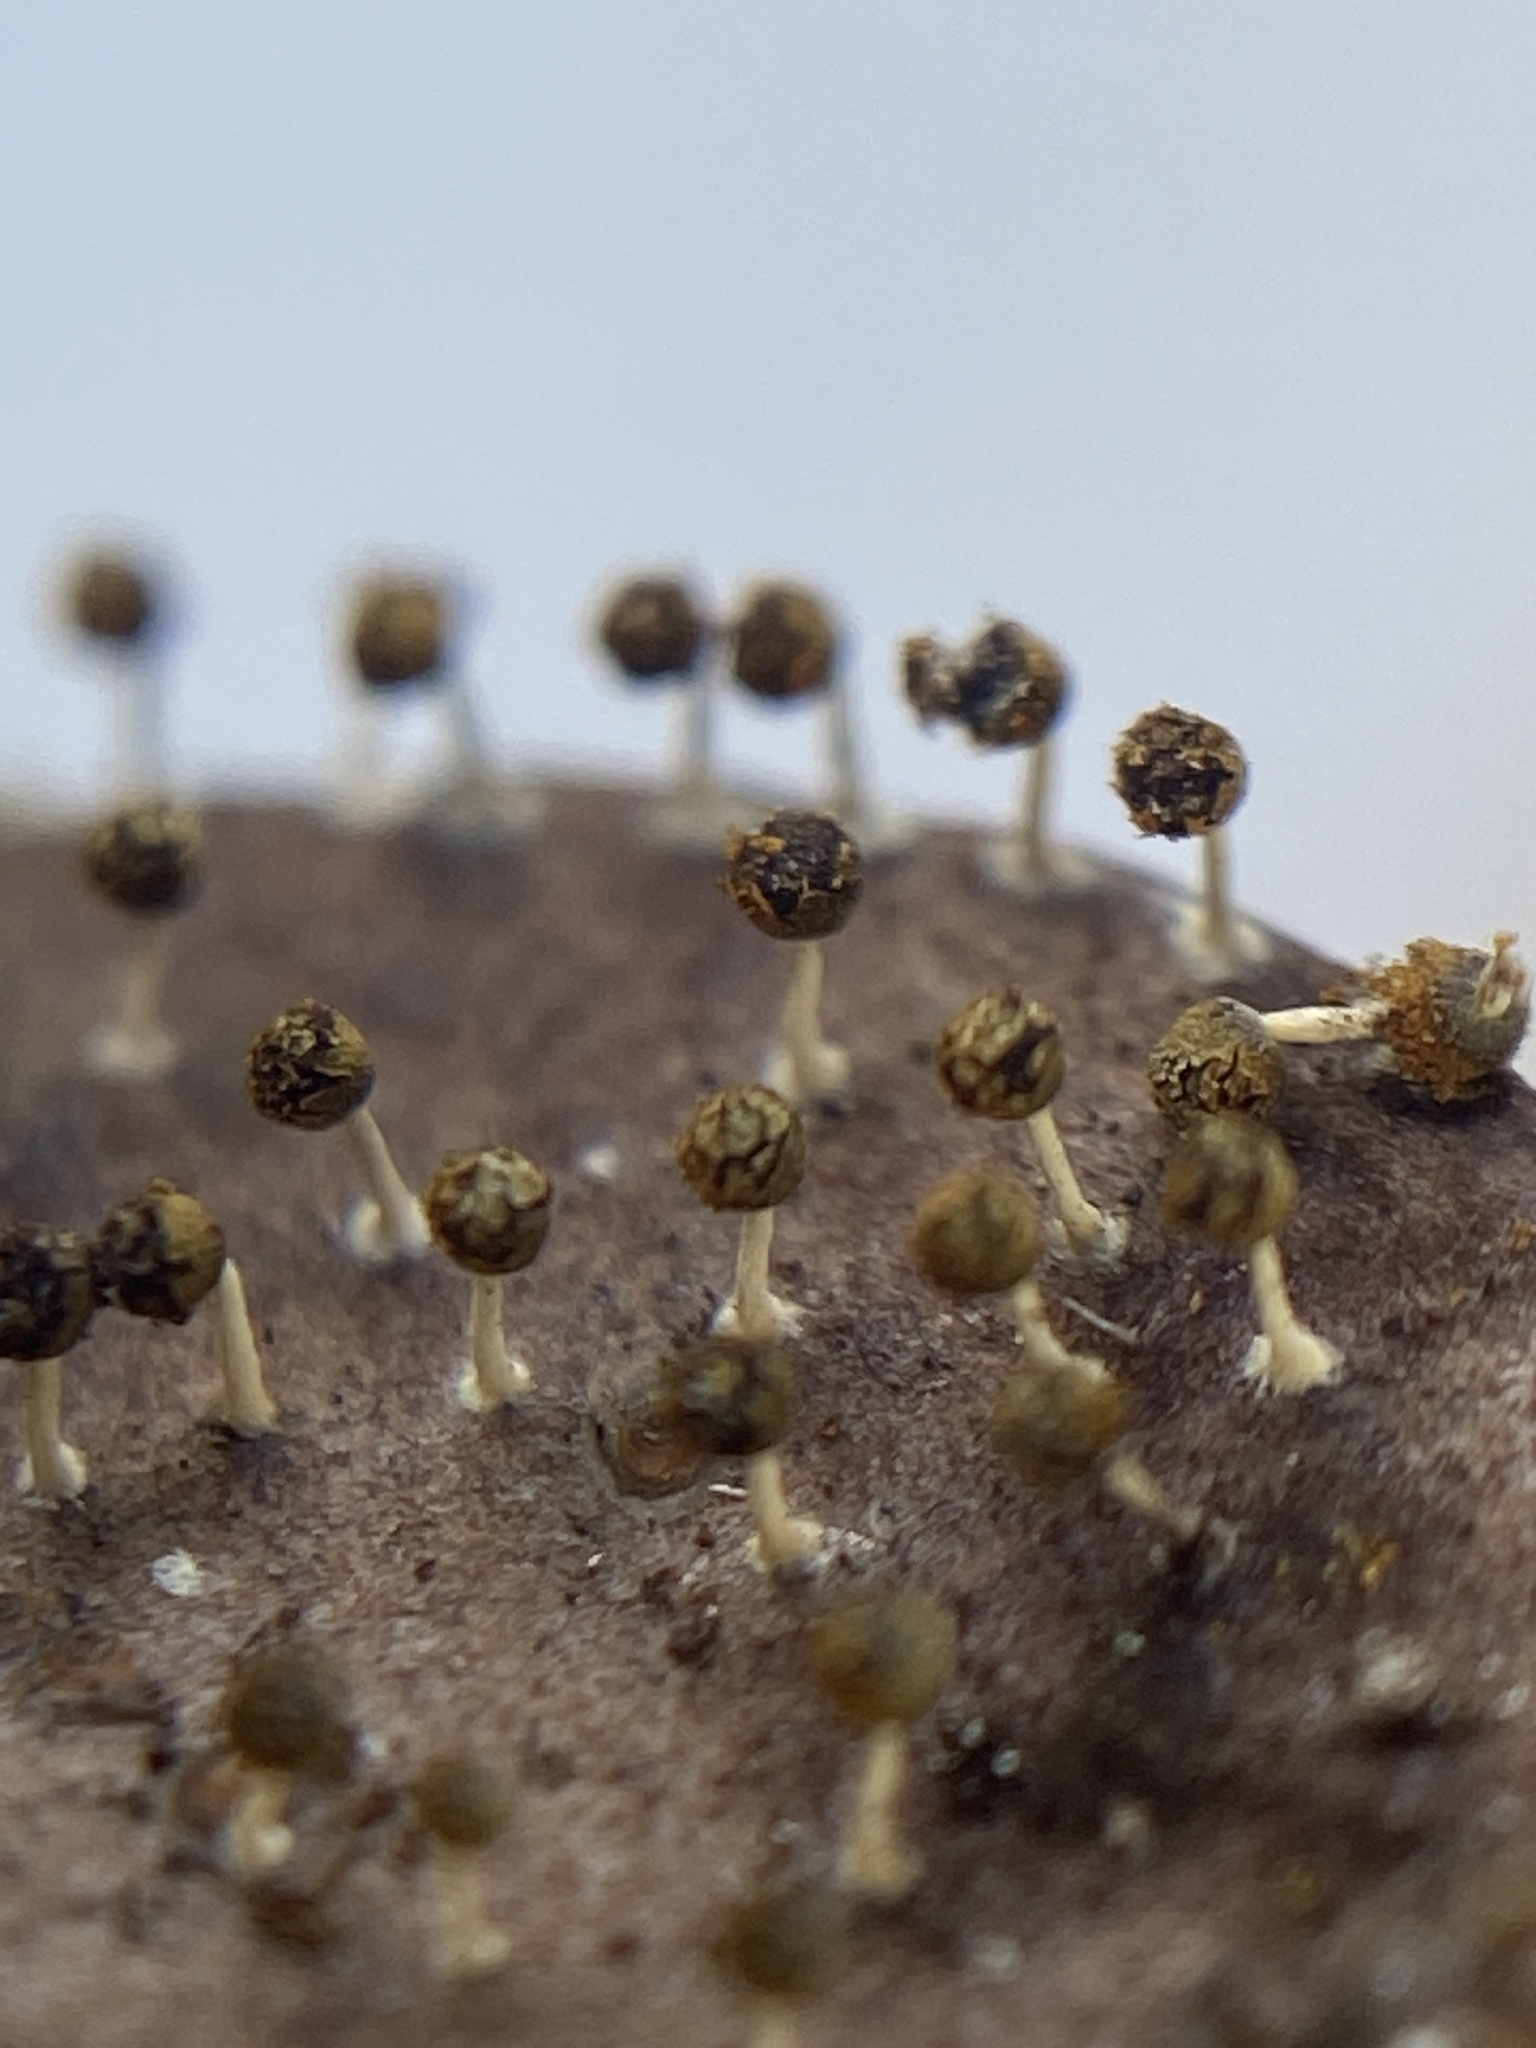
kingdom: Protozoa
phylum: Mycetozoa
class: Myxomycetes
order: Physarales
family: Physaraceae
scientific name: Physaraceae
